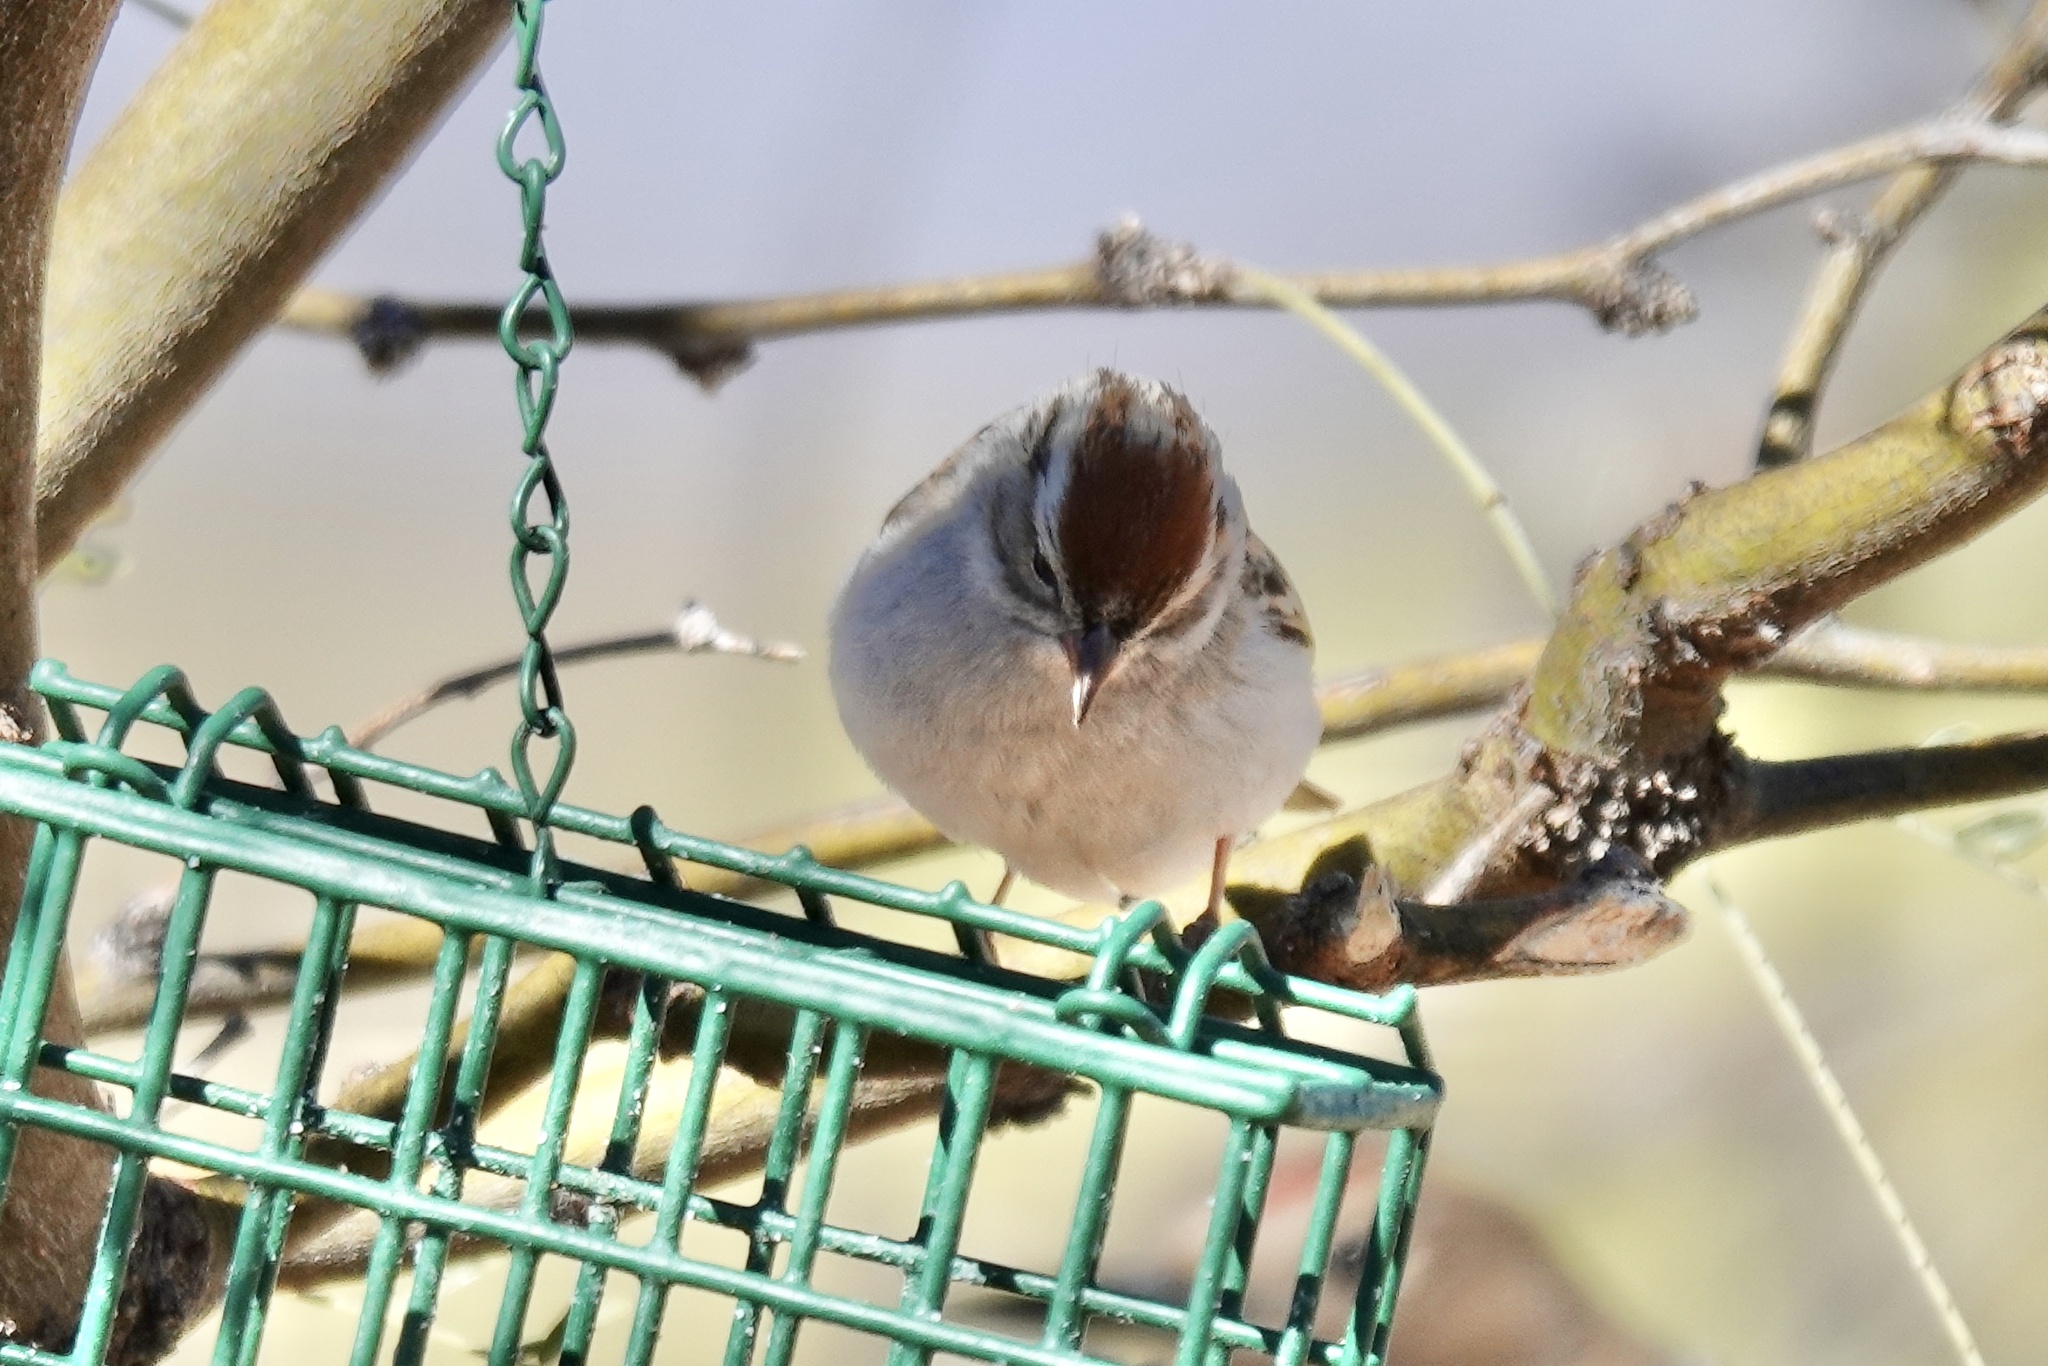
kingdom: Animalia
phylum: Chordata
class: Aves
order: Passeriformes
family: Passerellidae
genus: Spizella
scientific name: Spizella passerina
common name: Chipping sparrow
